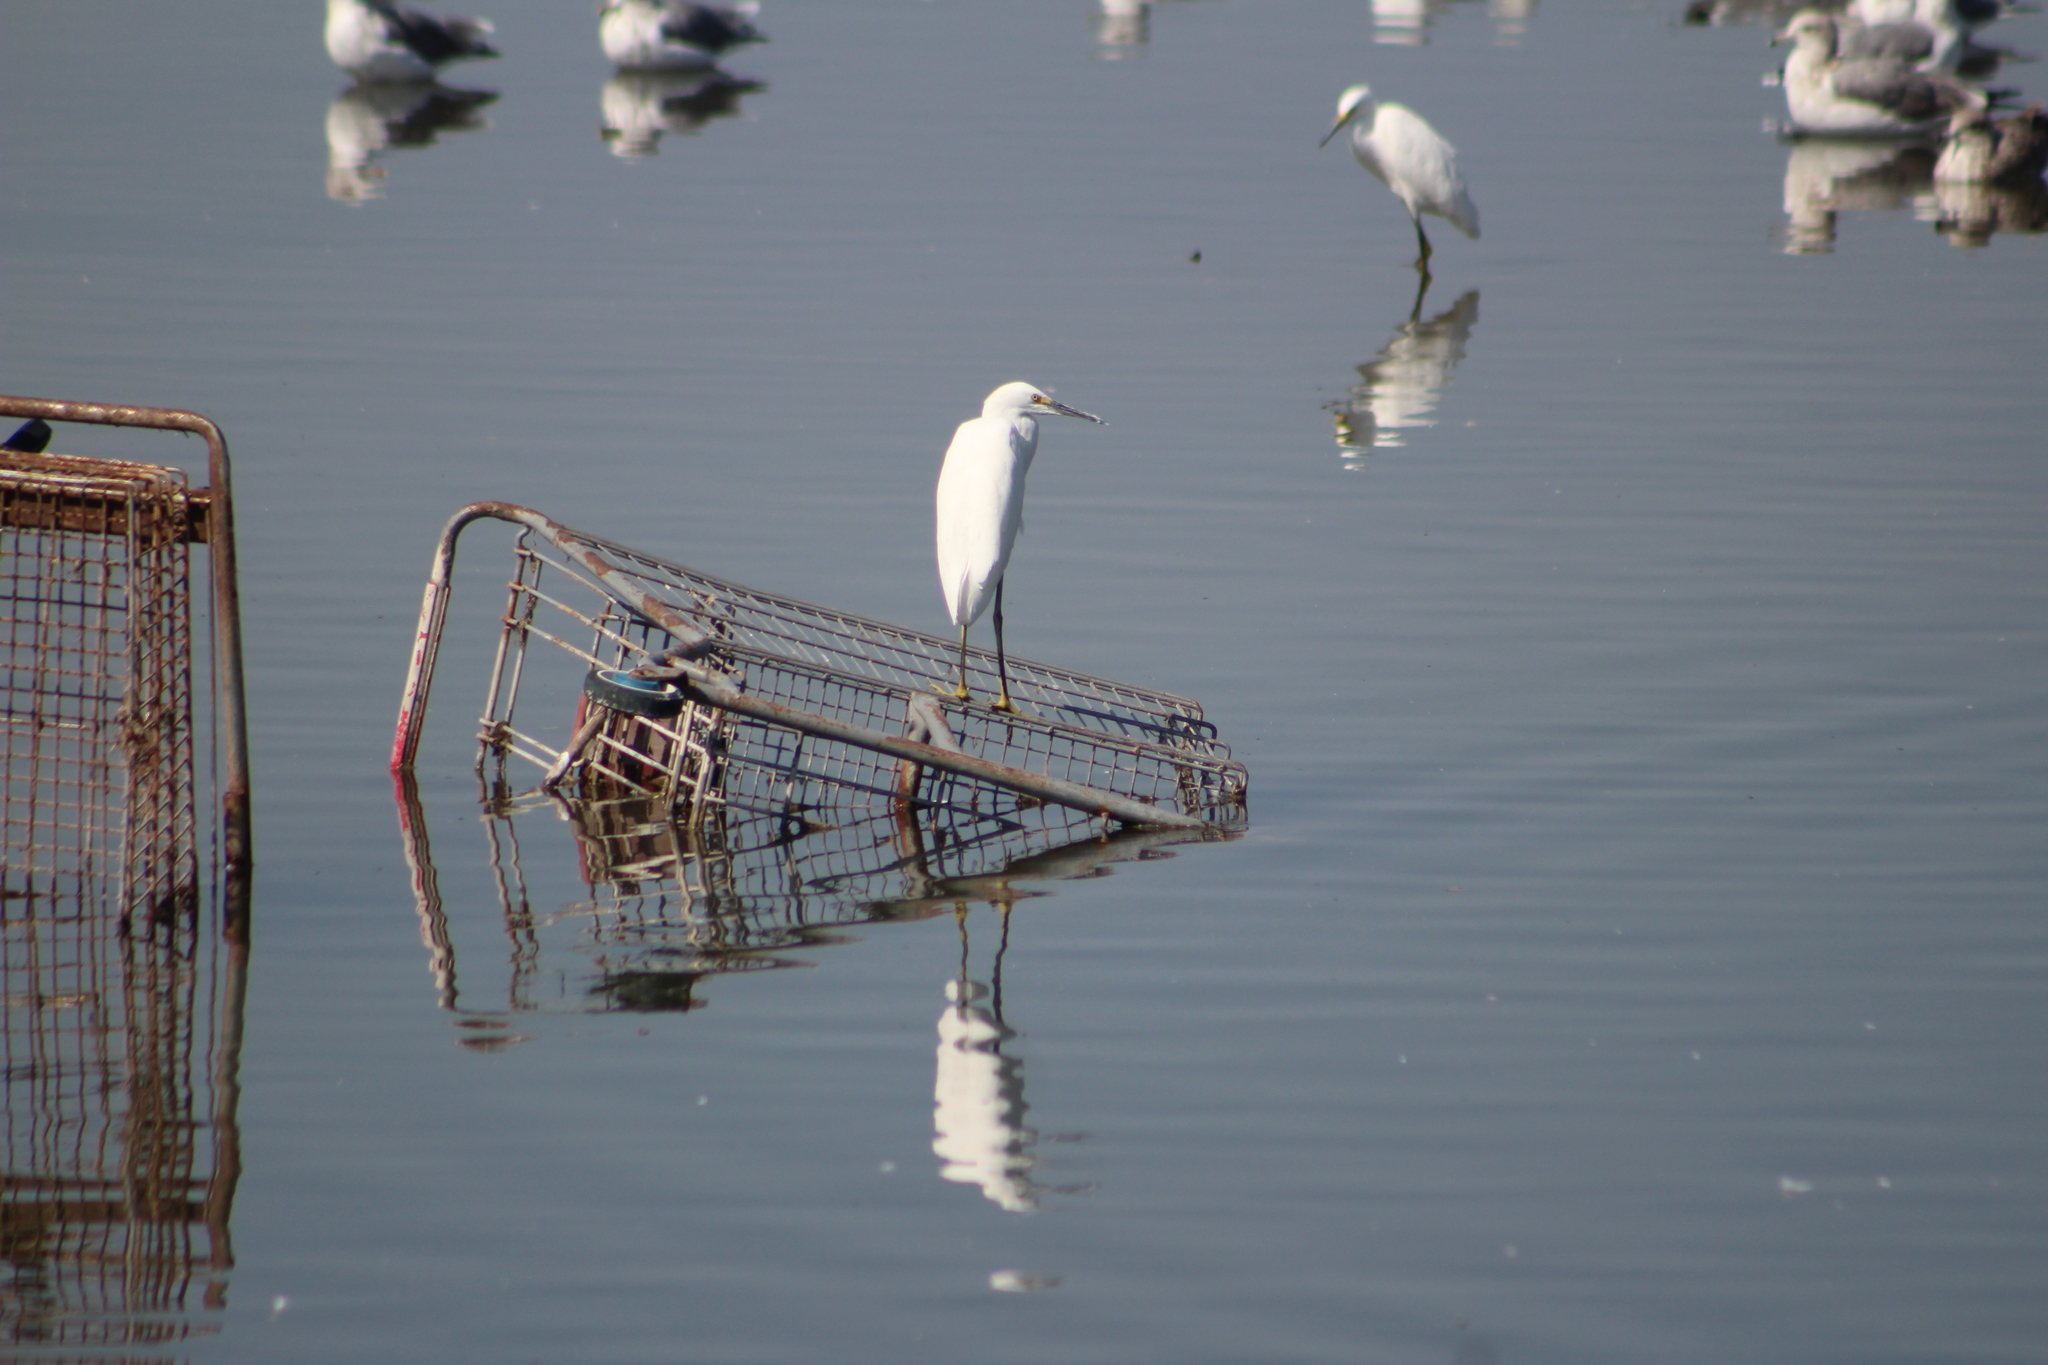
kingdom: Animalia
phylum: Chordata
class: Aves
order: Pelecaniformes
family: Ardeidae
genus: Egretta
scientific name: Egretta thula
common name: Snowy egret
